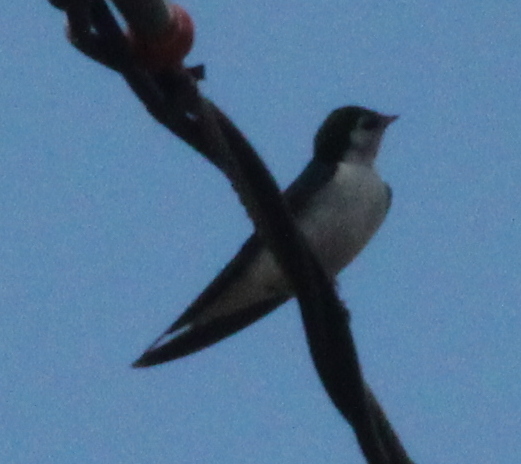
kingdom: Animalia
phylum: Chordata
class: Aves
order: Passeriformes
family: Hirundinidae
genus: Tachycineta
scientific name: Tachycineta thalassina
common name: Violet-green swallow
